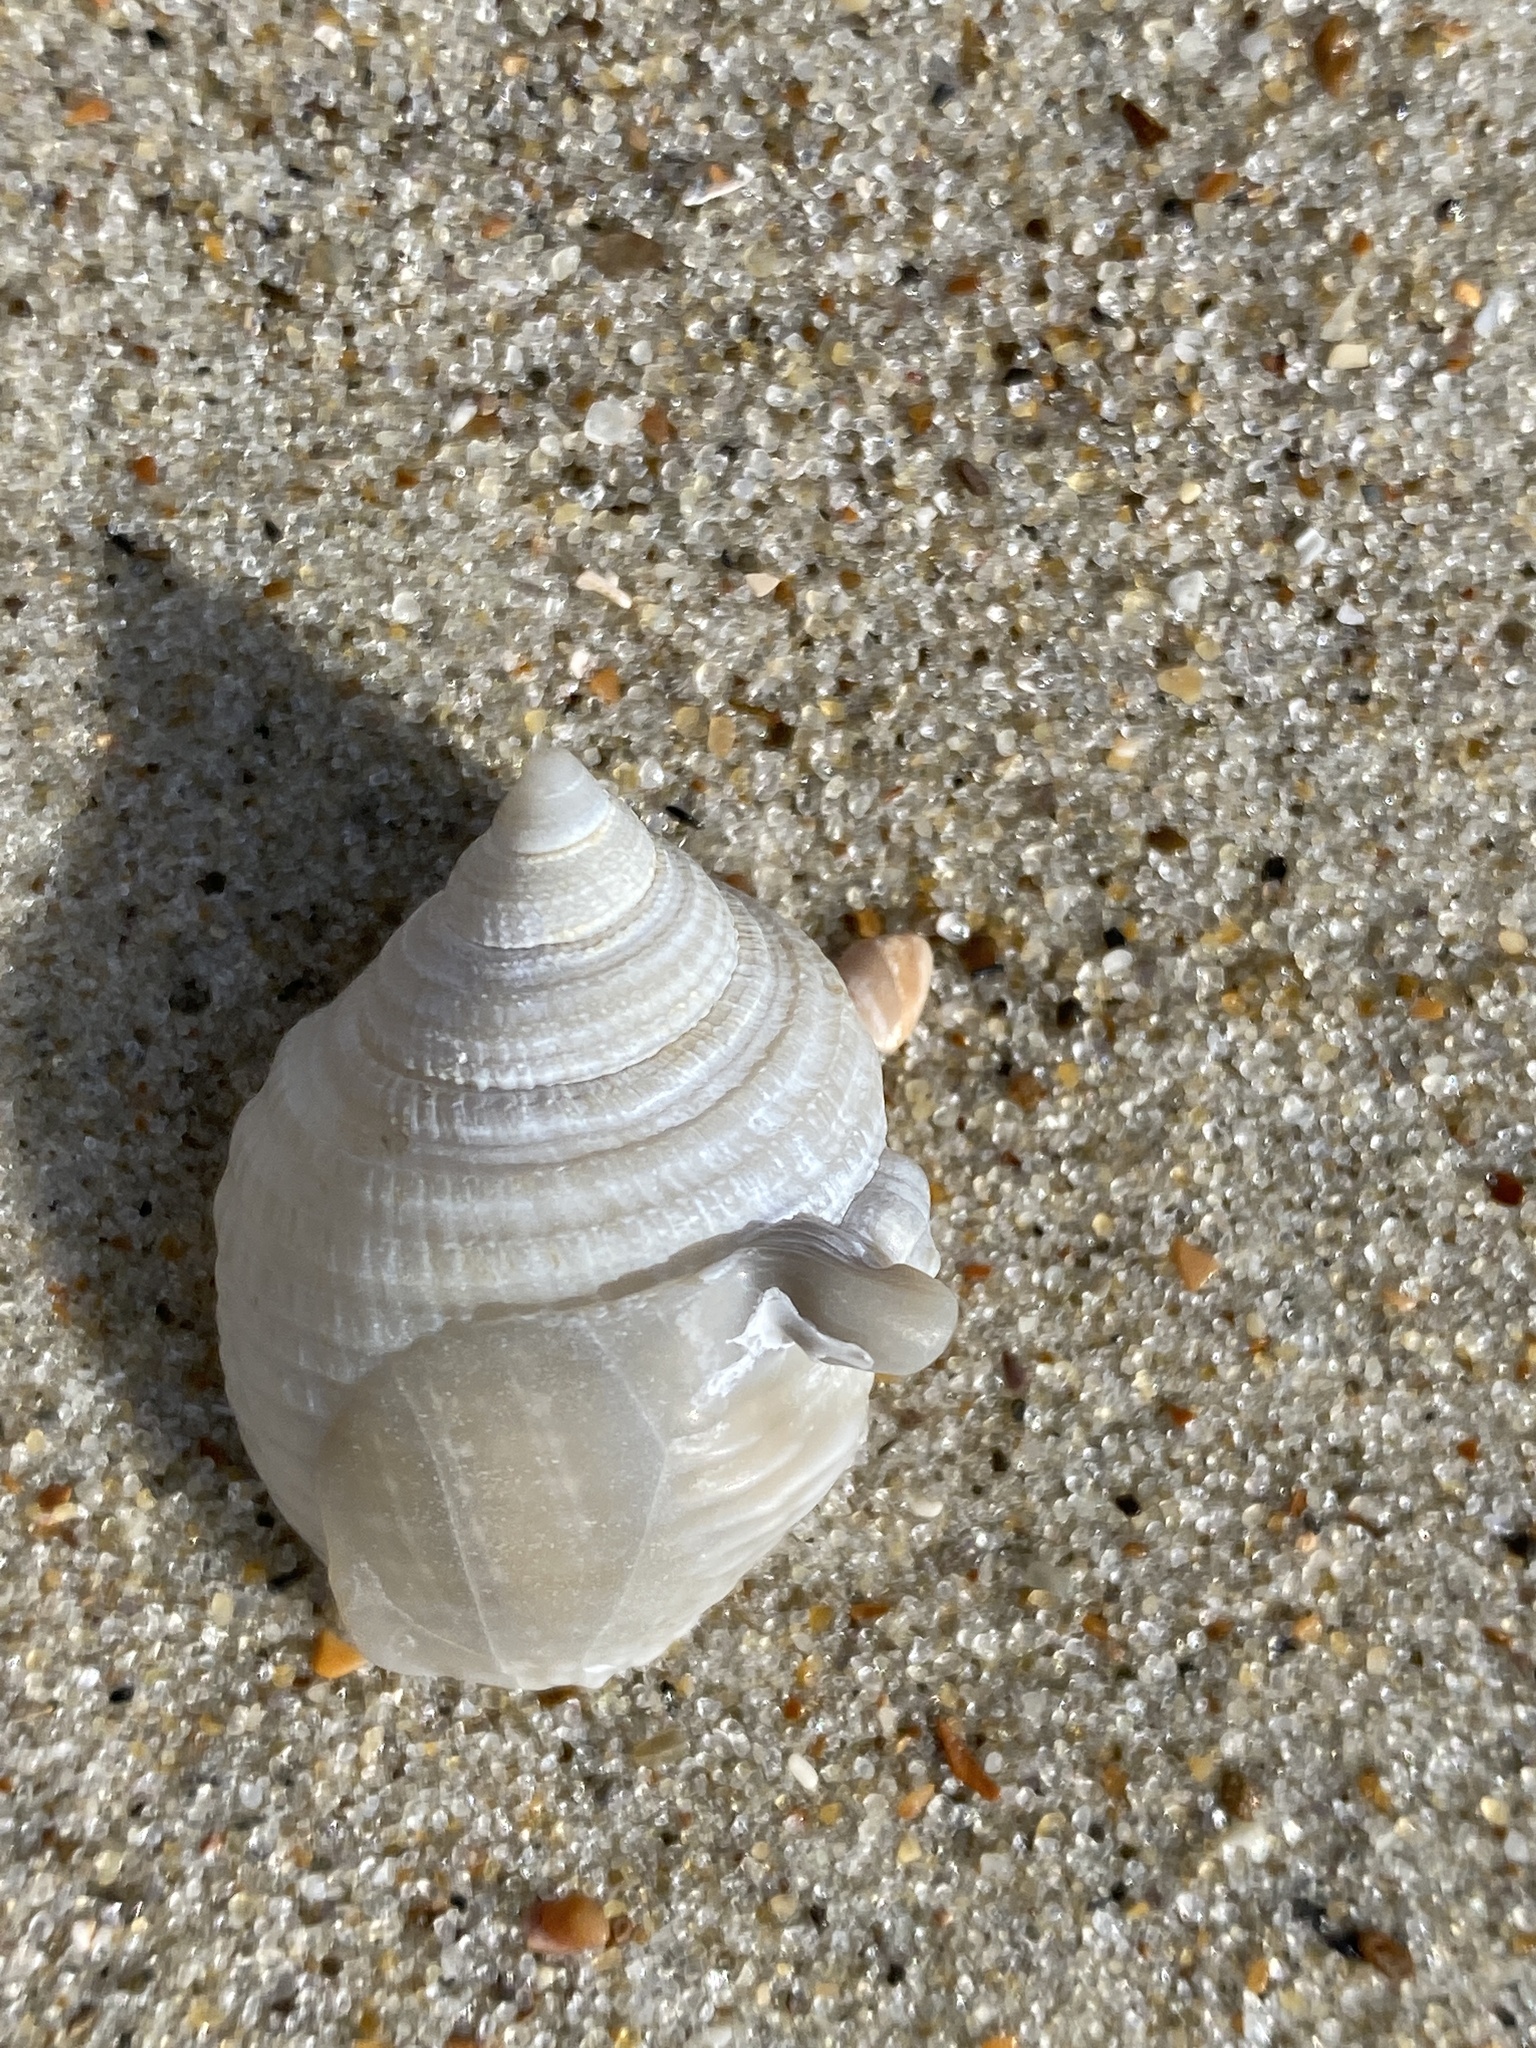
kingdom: Animalia
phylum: Mollusca
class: Gastropoda
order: Littorinimorpha
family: Cassidae
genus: Semicassis
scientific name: Semicassis granulata
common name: Scotch bonnet
